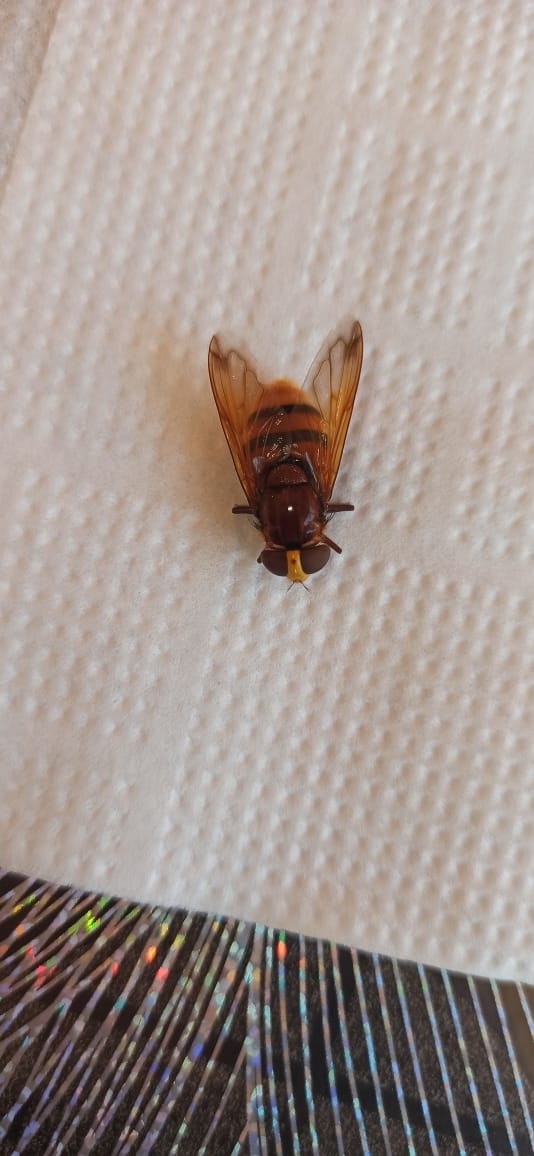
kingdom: Animalia
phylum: Arthropoda
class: Insecta
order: Diptera
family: Syrphidae
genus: Volucella
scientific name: Volucella zonaria
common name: Hornet hoverfly
